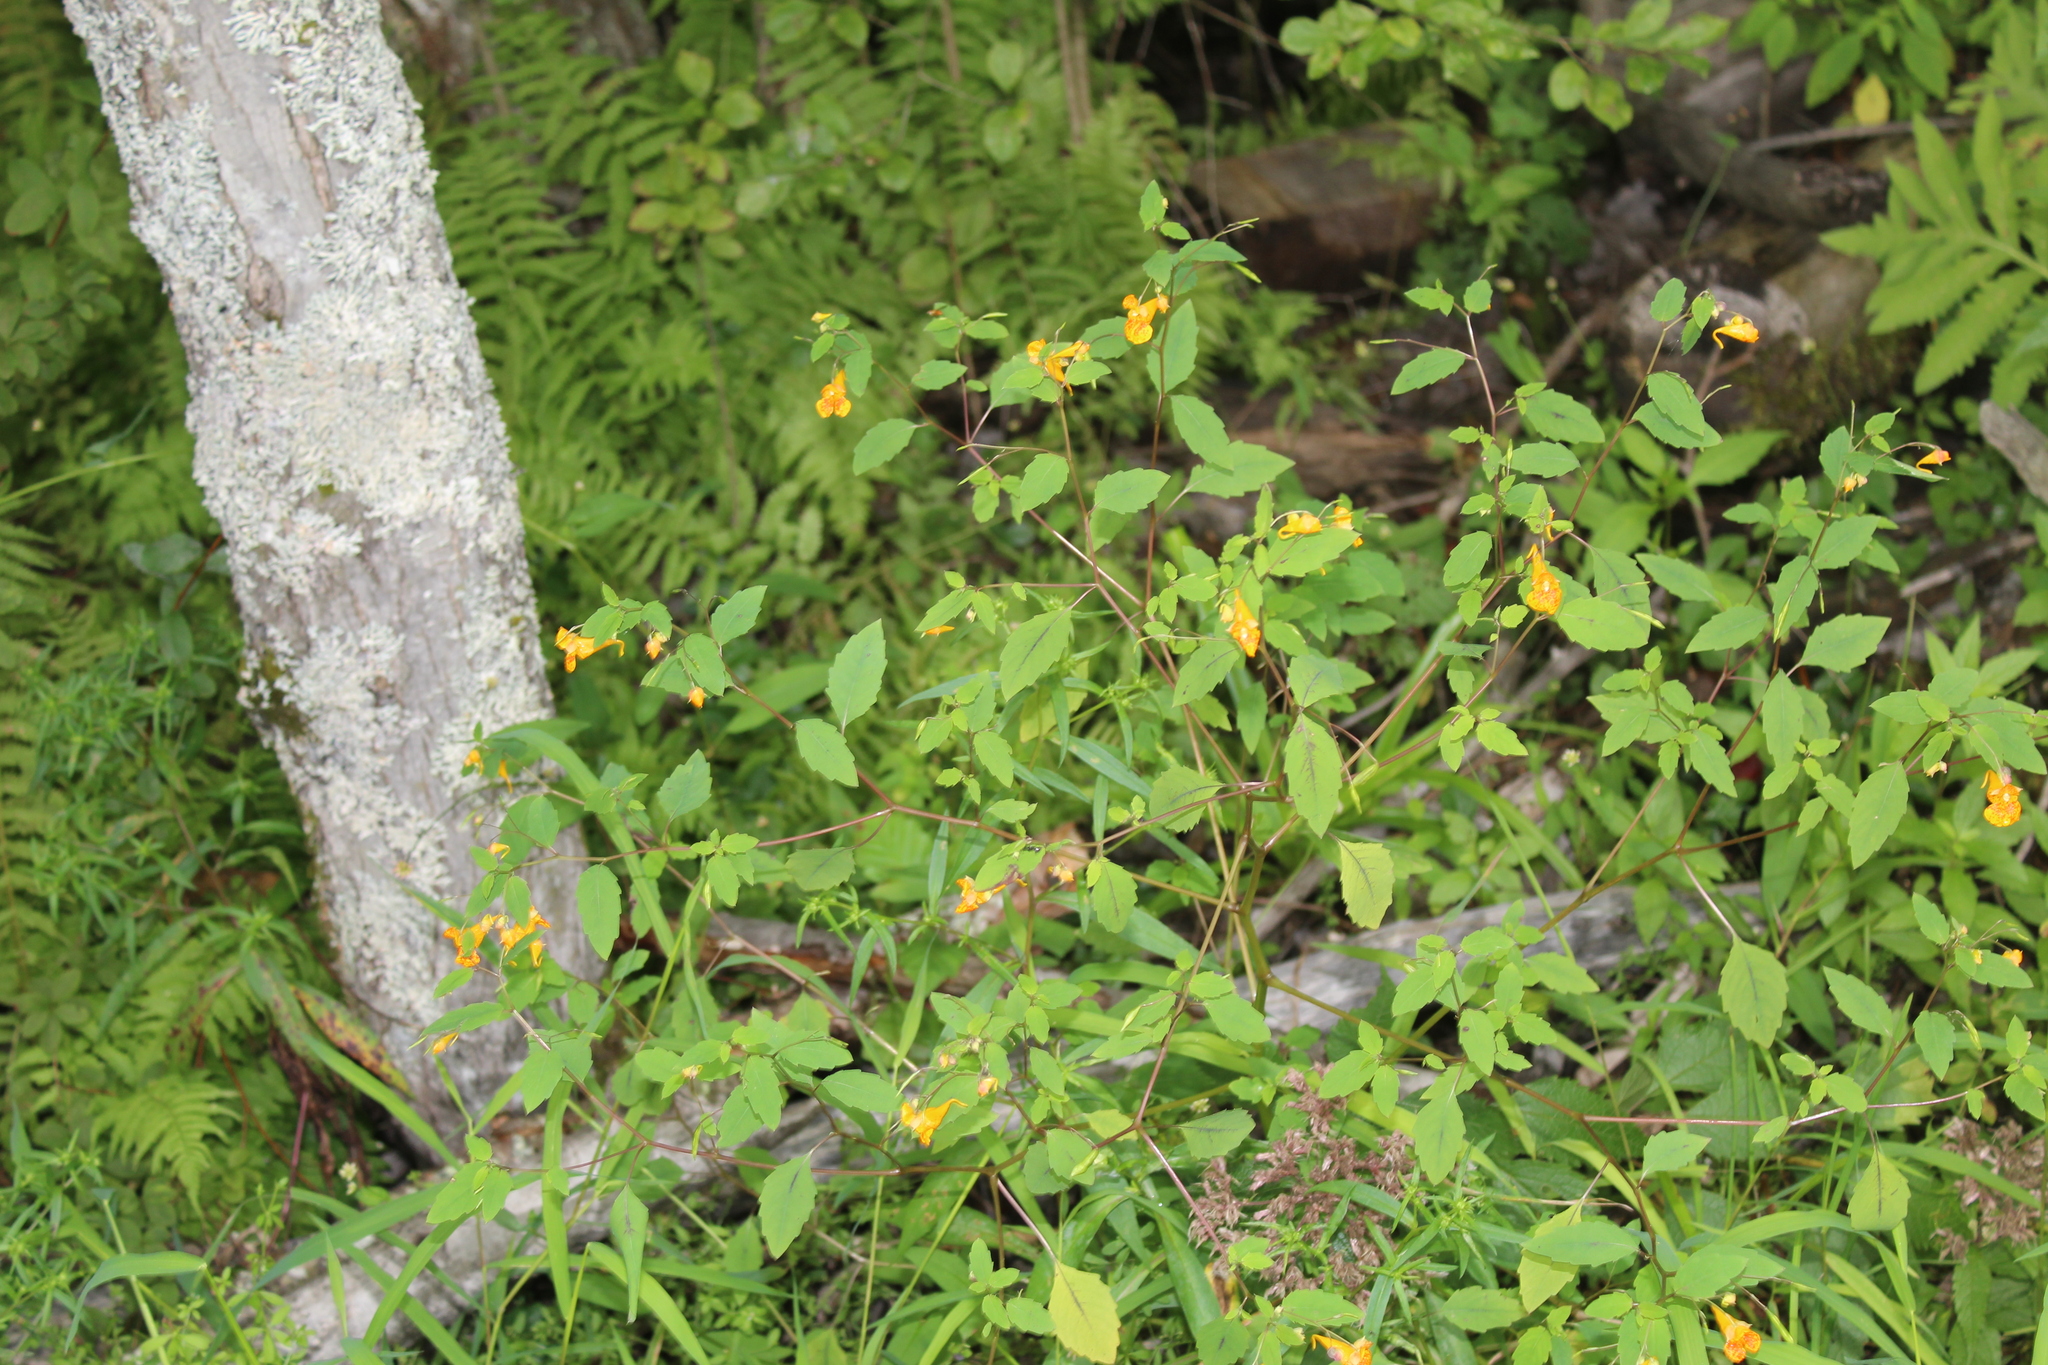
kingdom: Plantae
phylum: Tracheophyta
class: Magnoliopsida
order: Ericales
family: Balsaminaceae
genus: Impatiens
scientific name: Impatiens capensis
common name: Orange balsam
